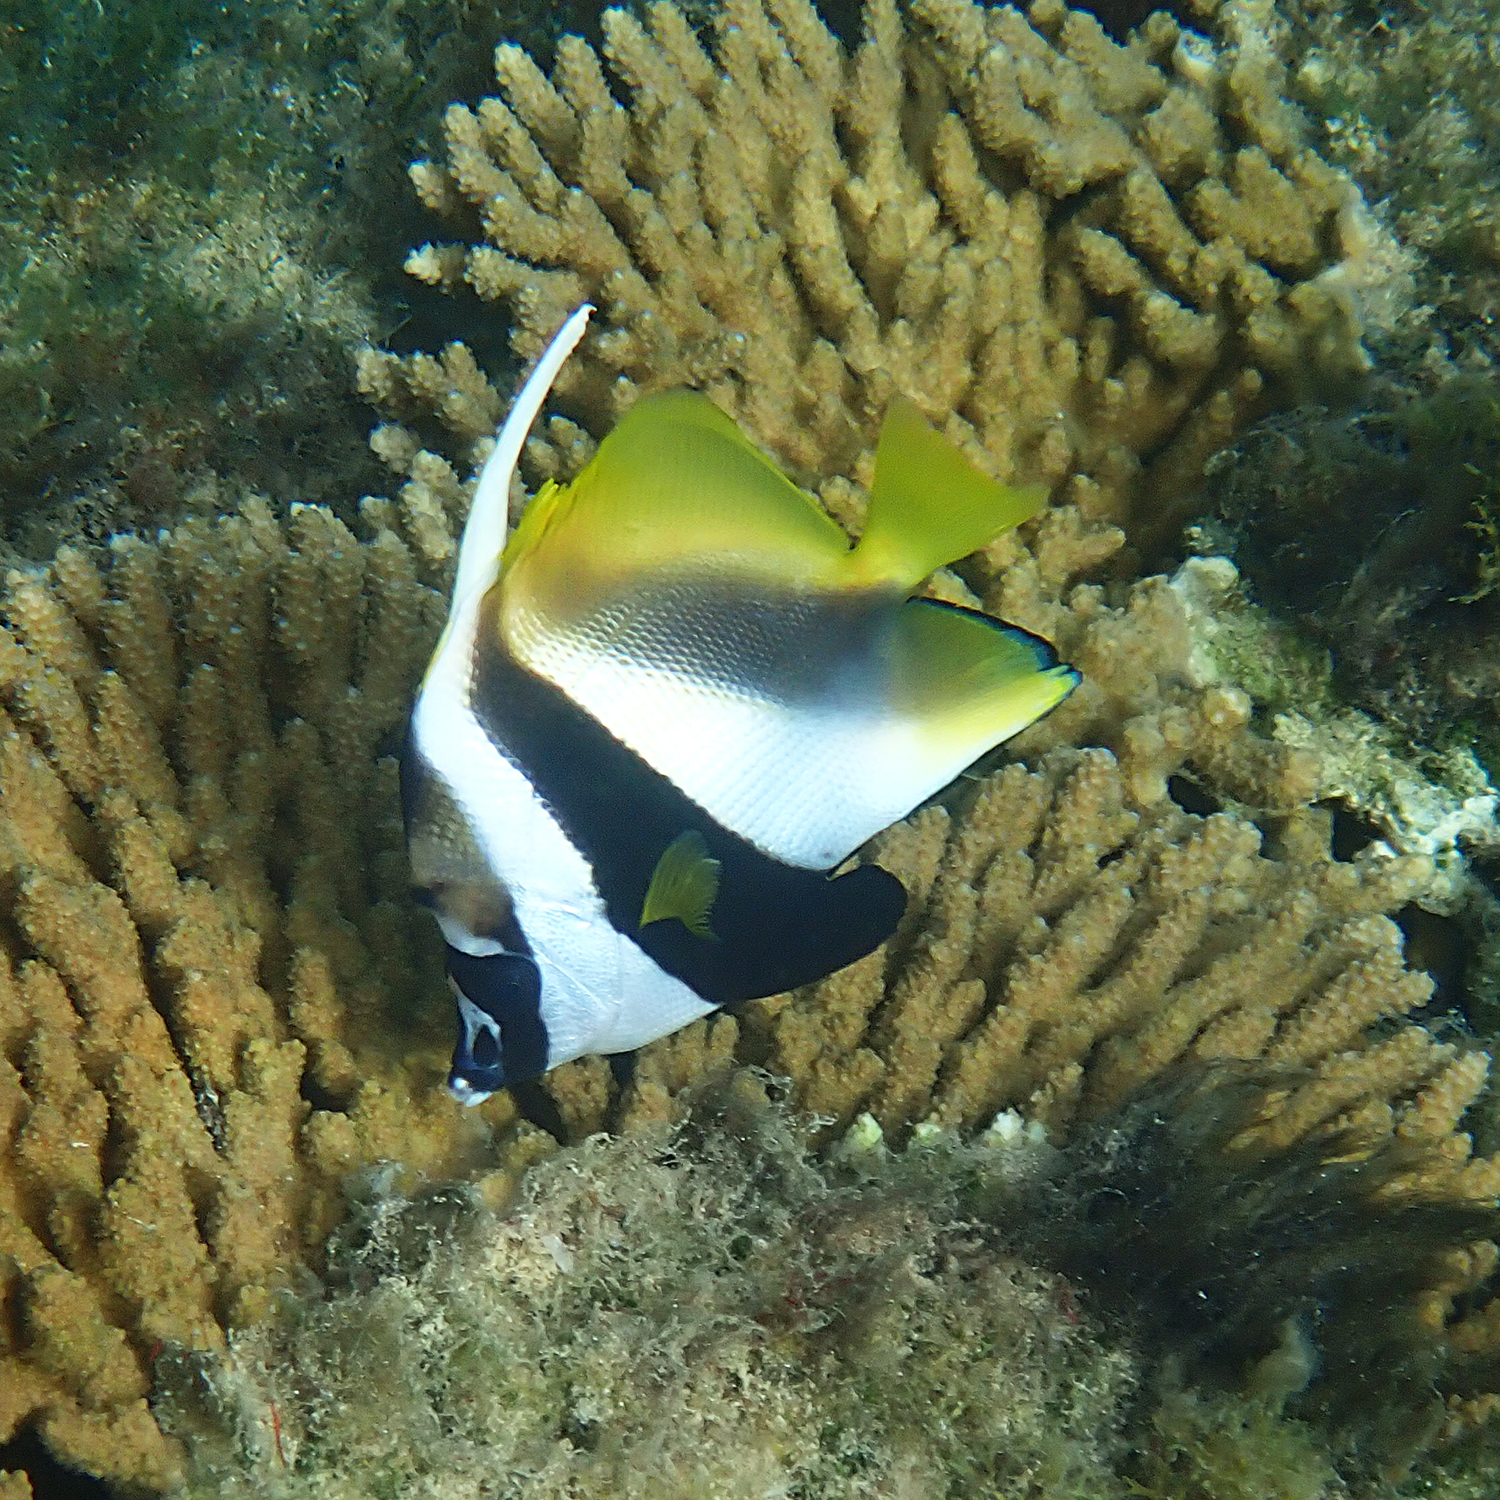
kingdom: Animalia
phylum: Chordata
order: Perciformes
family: Chaetodontidae
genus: Heniochus
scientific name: Heniochus monoceros
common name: Masked bannerfish
